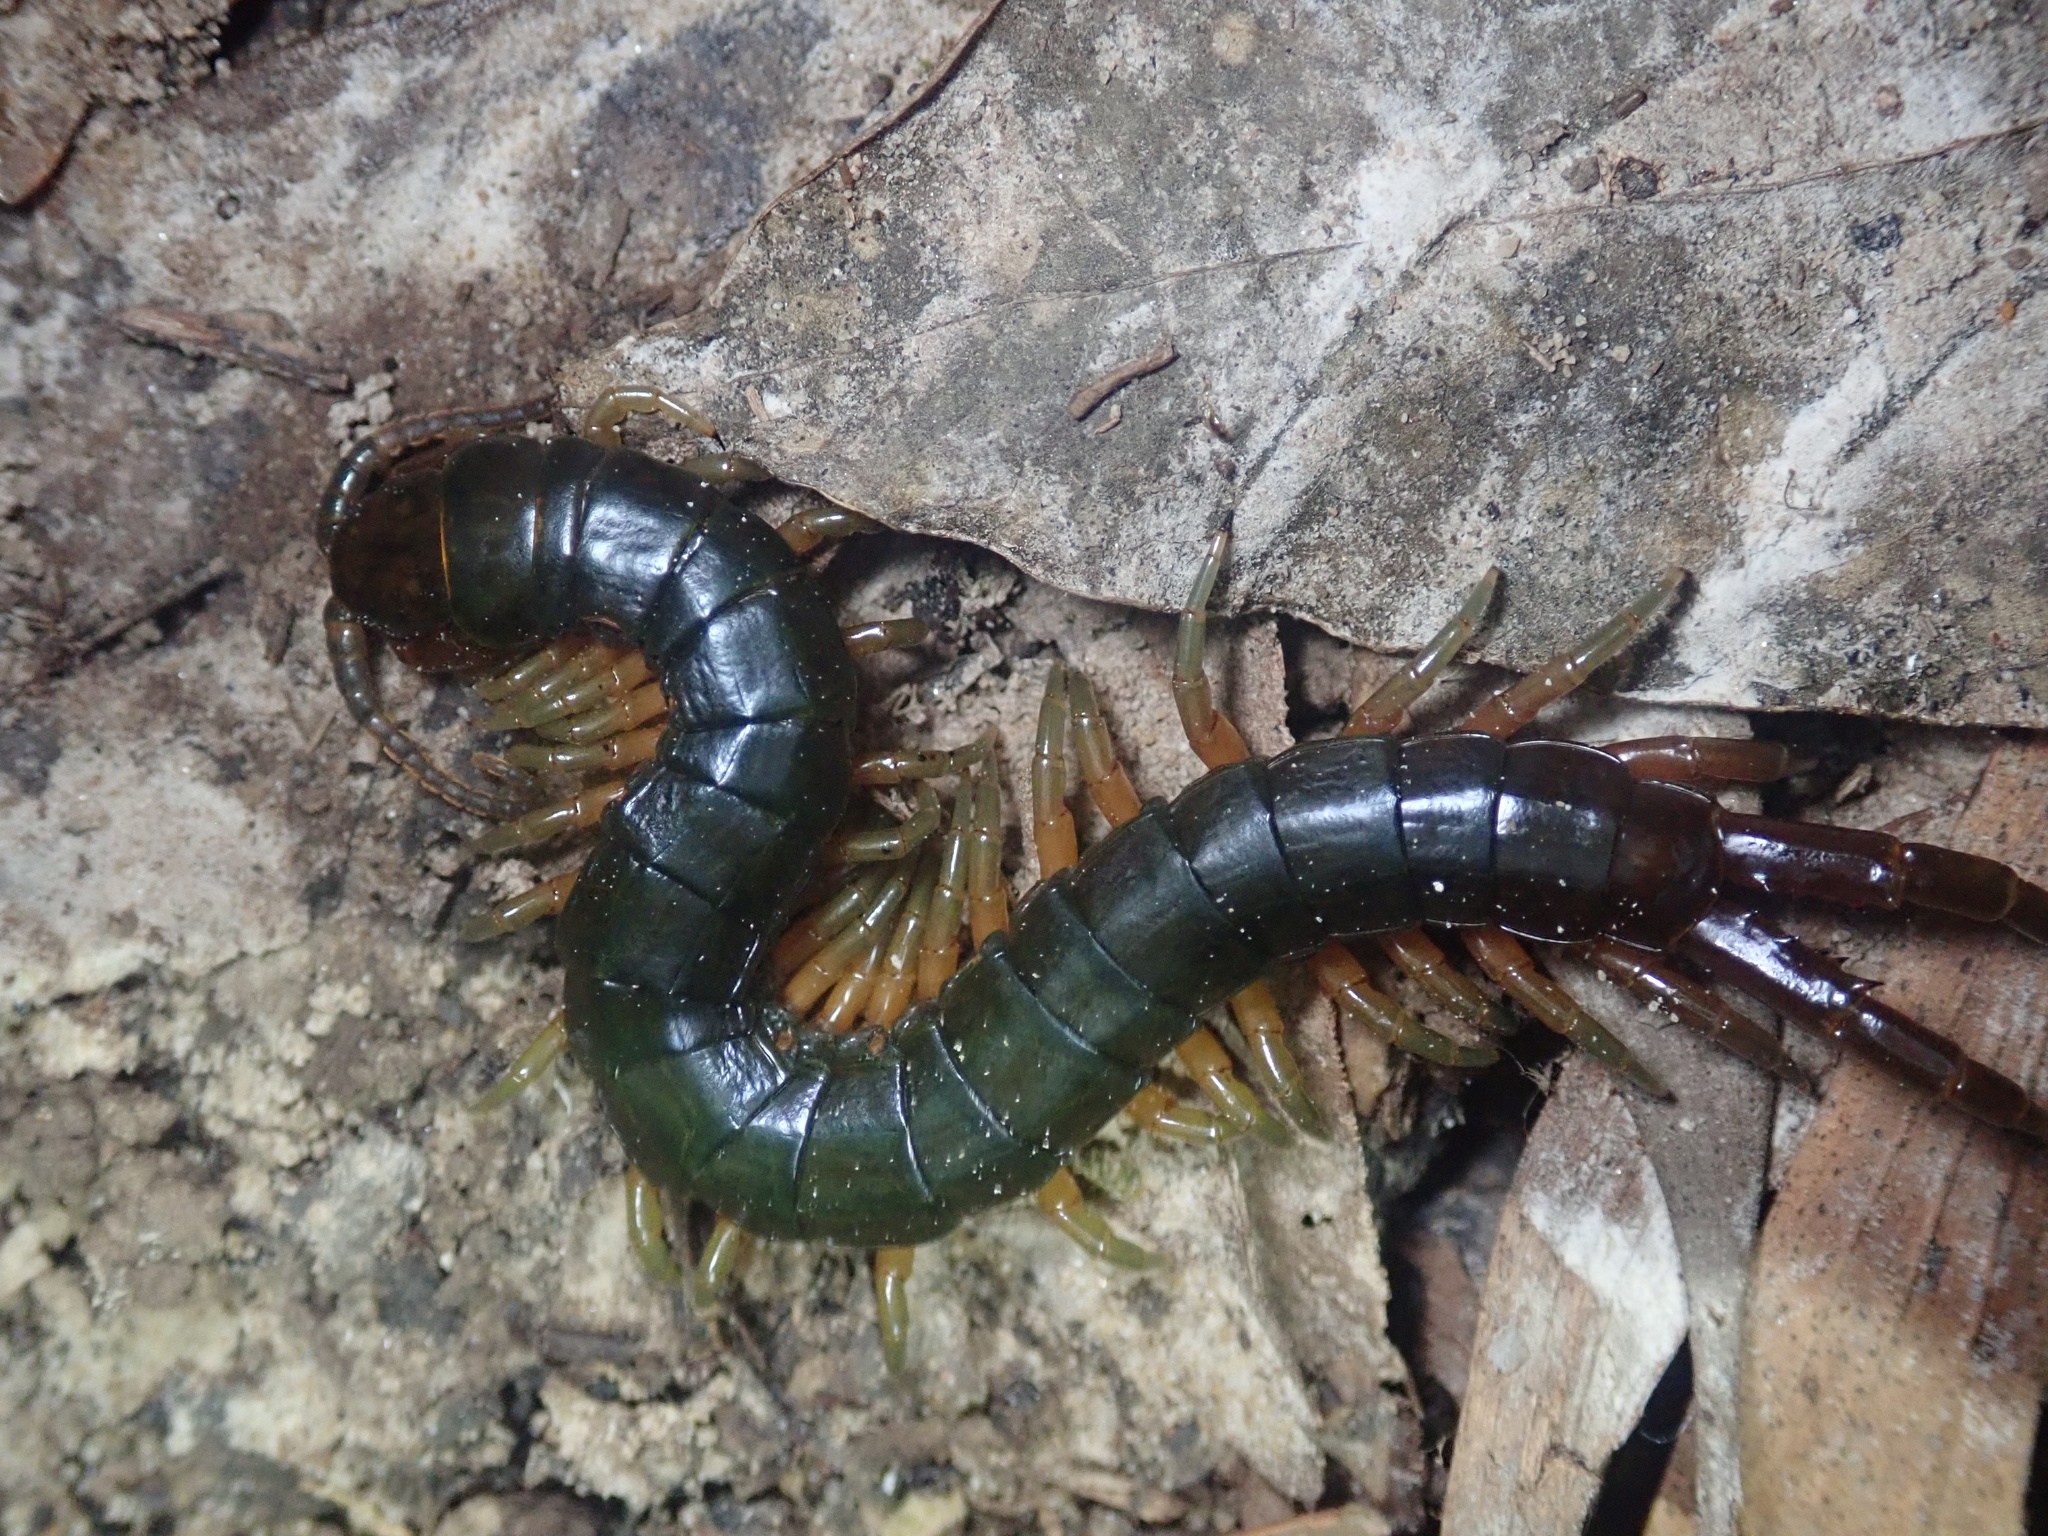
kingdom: Animalia
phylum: Arthropoda
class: Chilopoda
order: Scolopendromorpha
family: Scolopendridae
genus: Ethmostigmus
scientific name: Ethmostigmus rubripes
